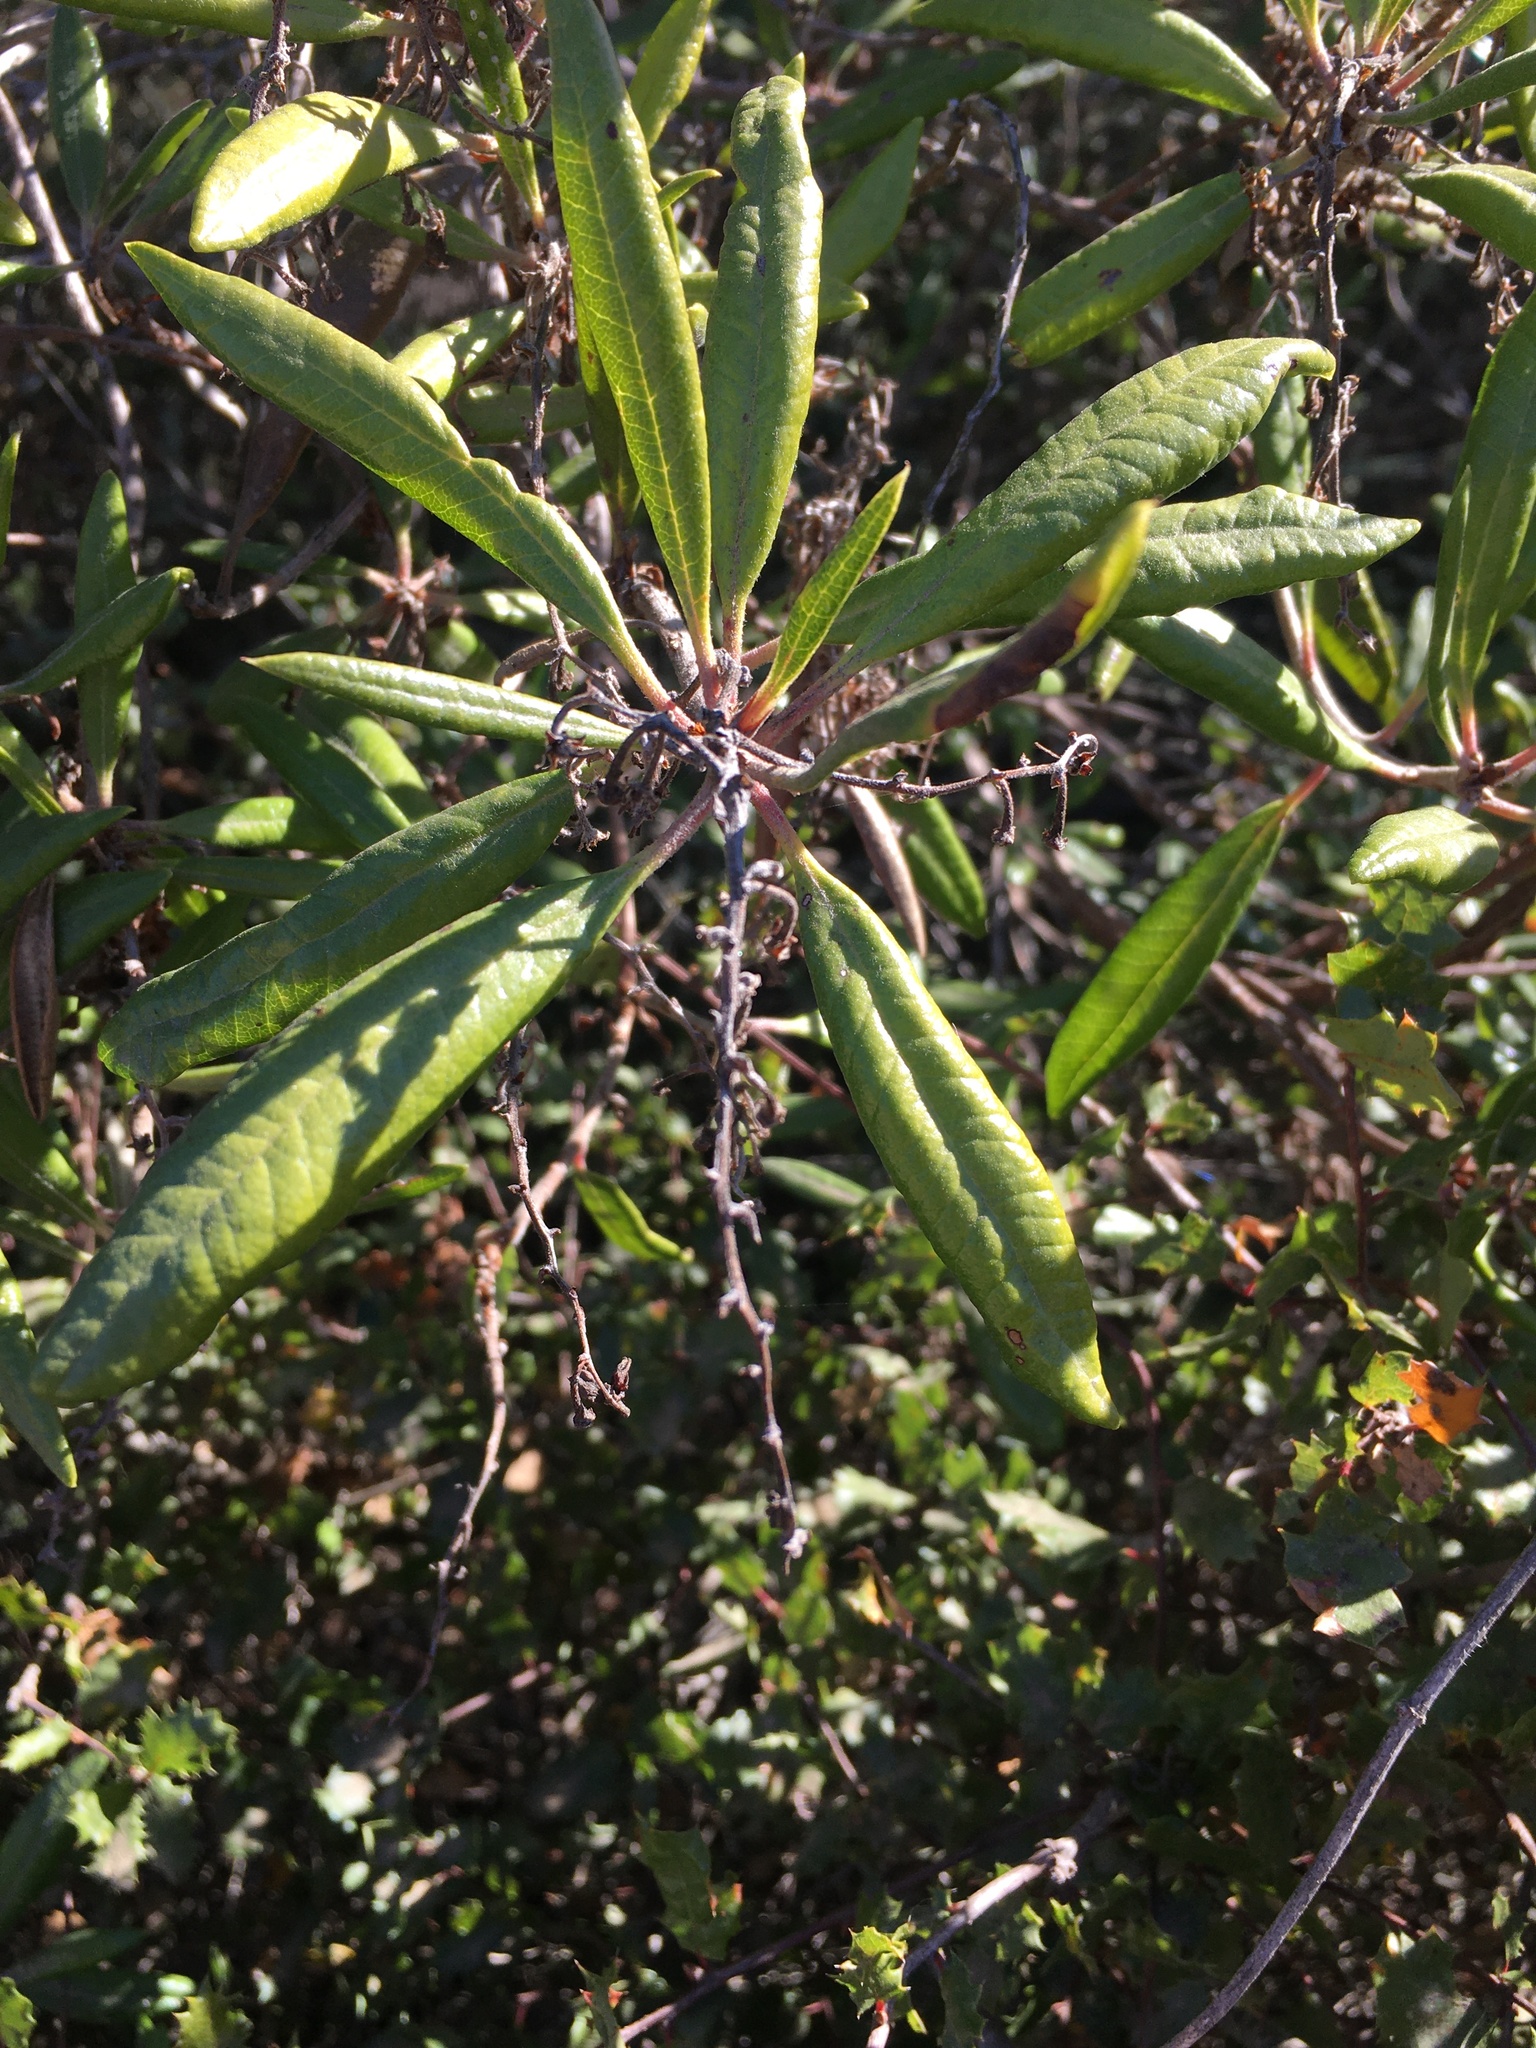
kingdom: Plantae
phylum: Tracheophyta
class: Magnoliopsida
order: Ericales
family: Ericaceae
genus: Comarostaphylis
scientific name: Comarostaphylis diversifolia
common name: Summer-holly
